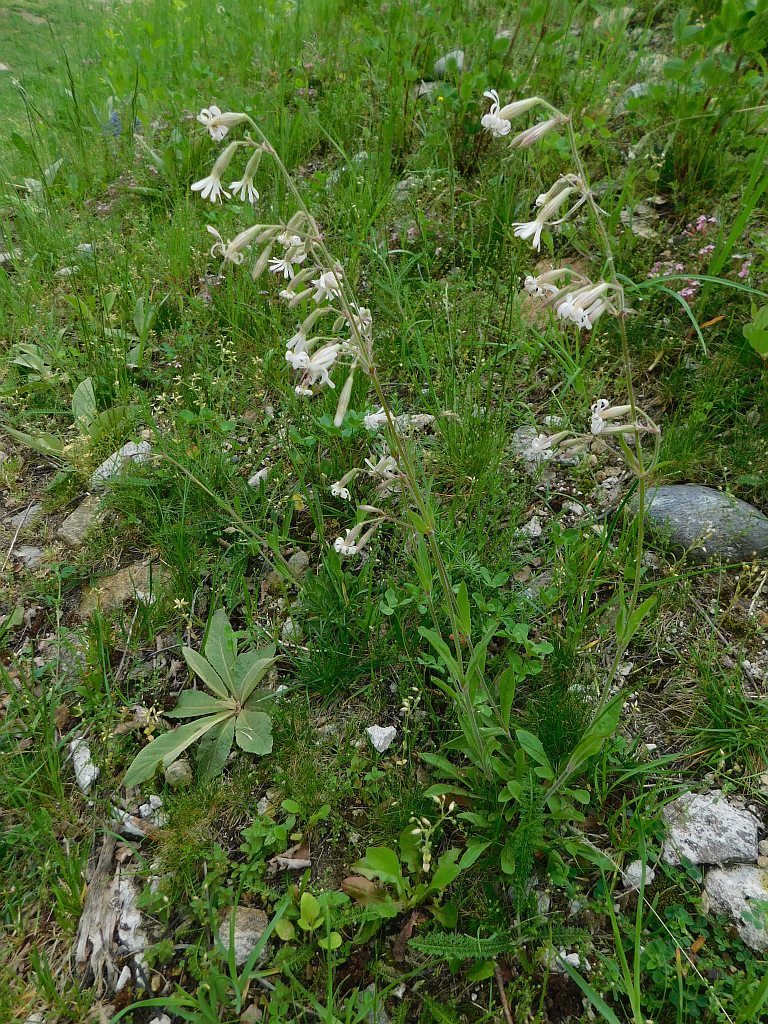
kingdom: Plantae
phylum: Tracheophyta
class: Magnoliopsida
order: Caryophyllales
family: Caryophyllaceae
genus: Silene
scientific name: Silene nutans
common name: Nottingham catchfly
